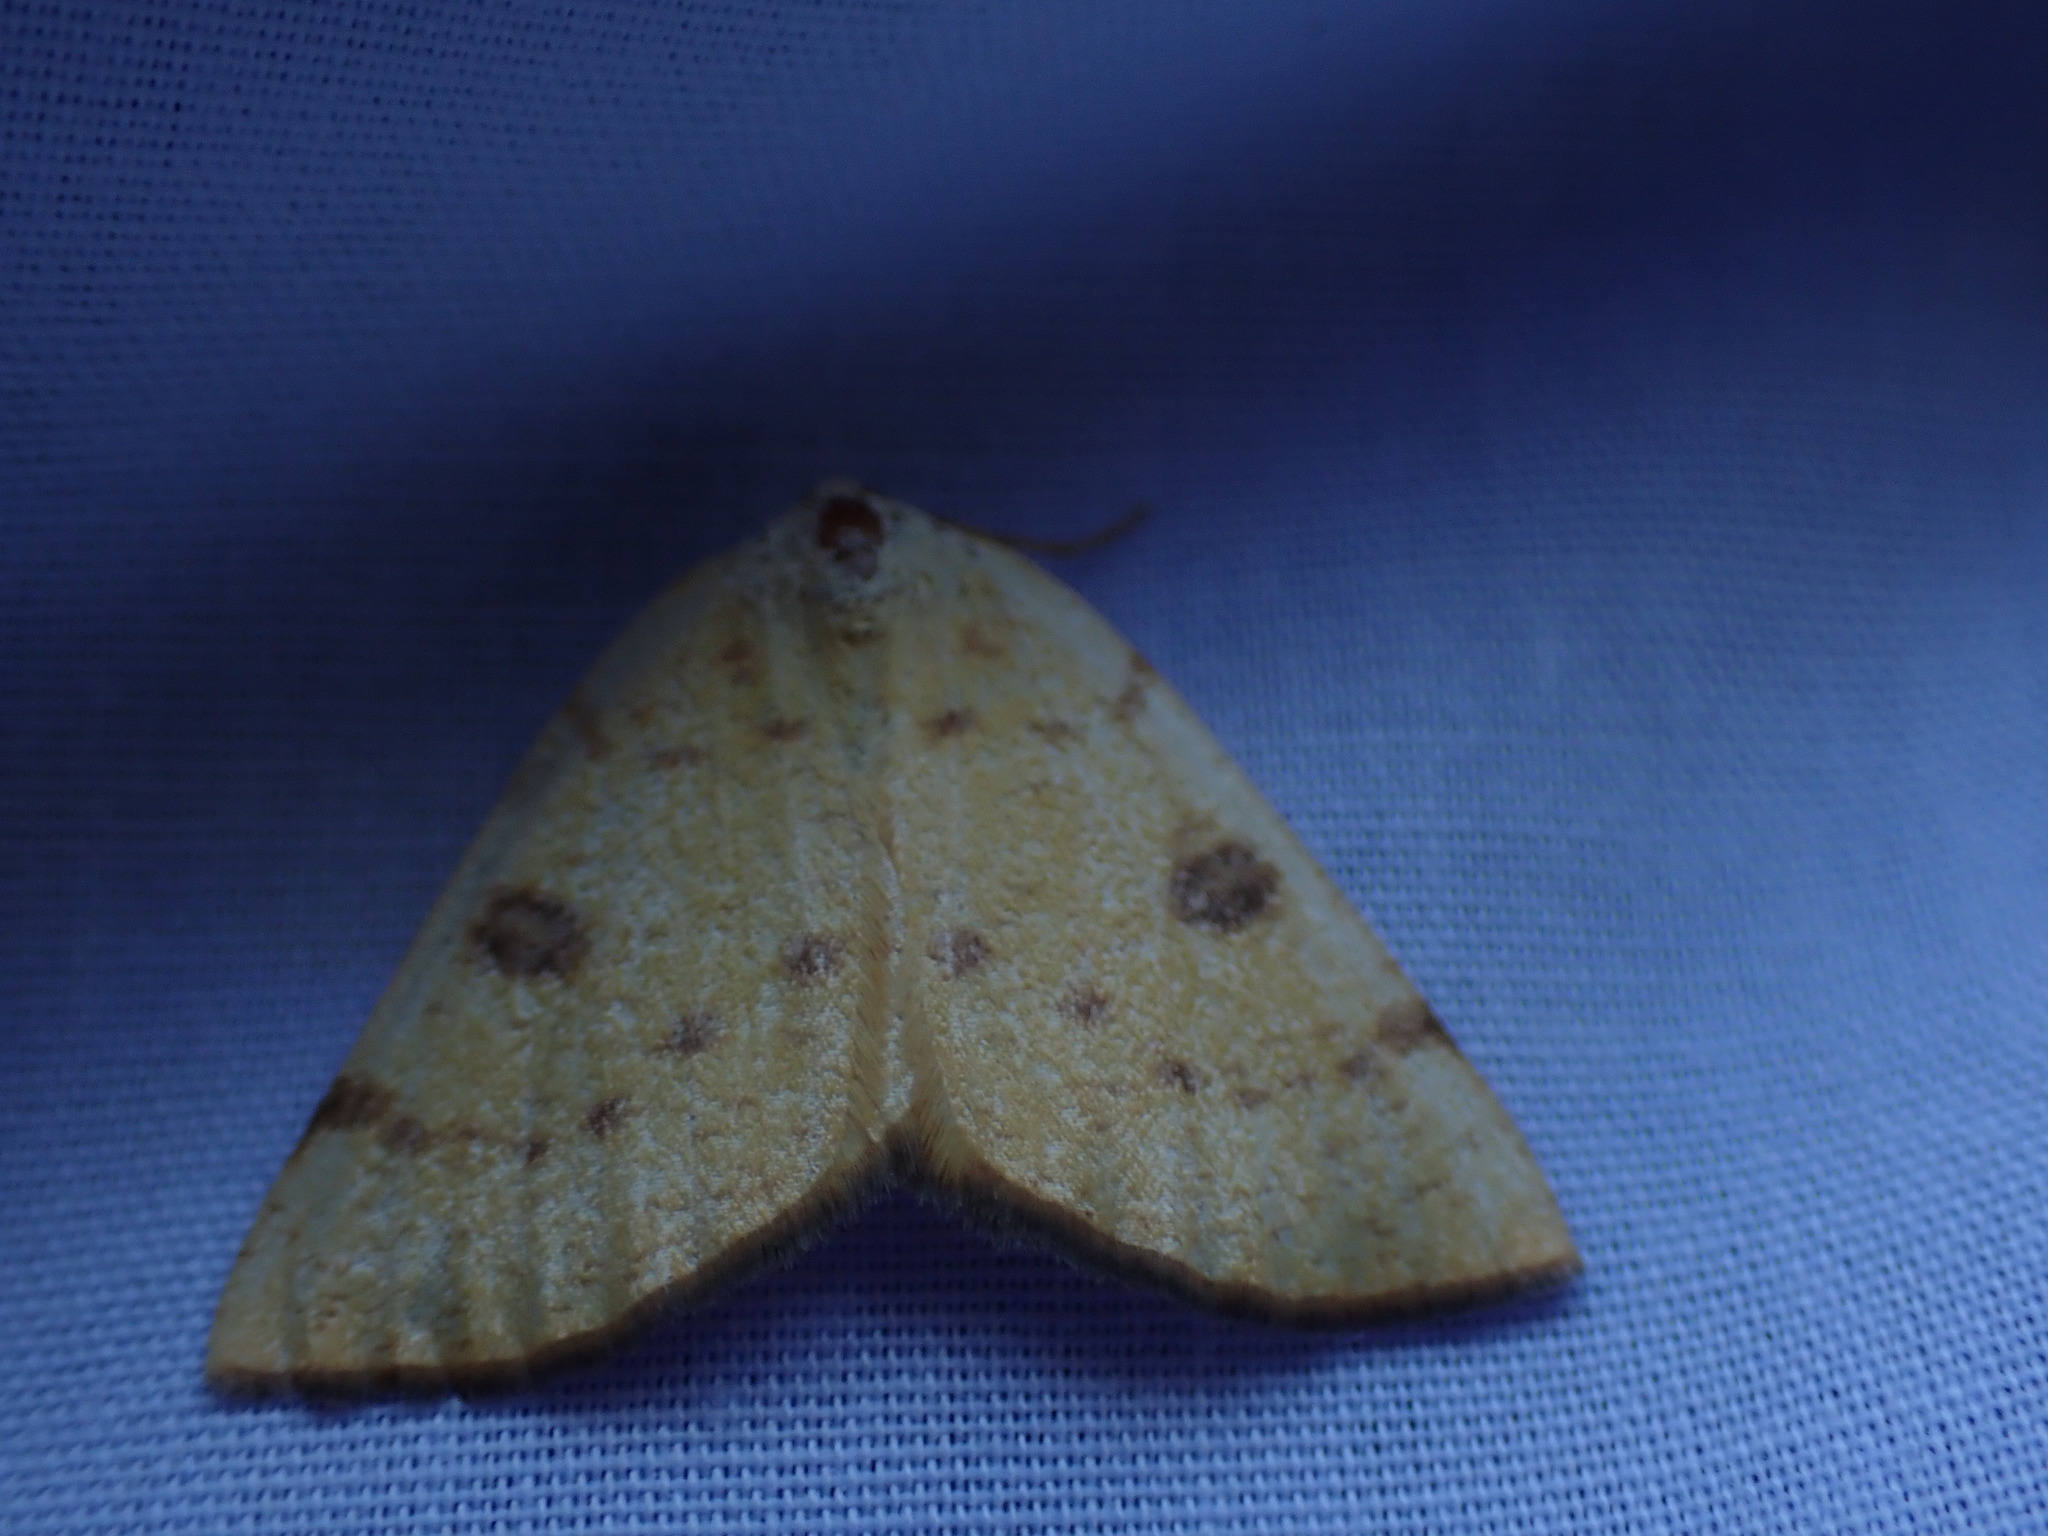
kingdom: Animalia
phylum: Arthropoda
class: Insecta
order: Lepidoptera
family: Geometridae
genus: Hesperumia
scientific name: Hesperumia sulphuraria
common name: Sulphur moth
